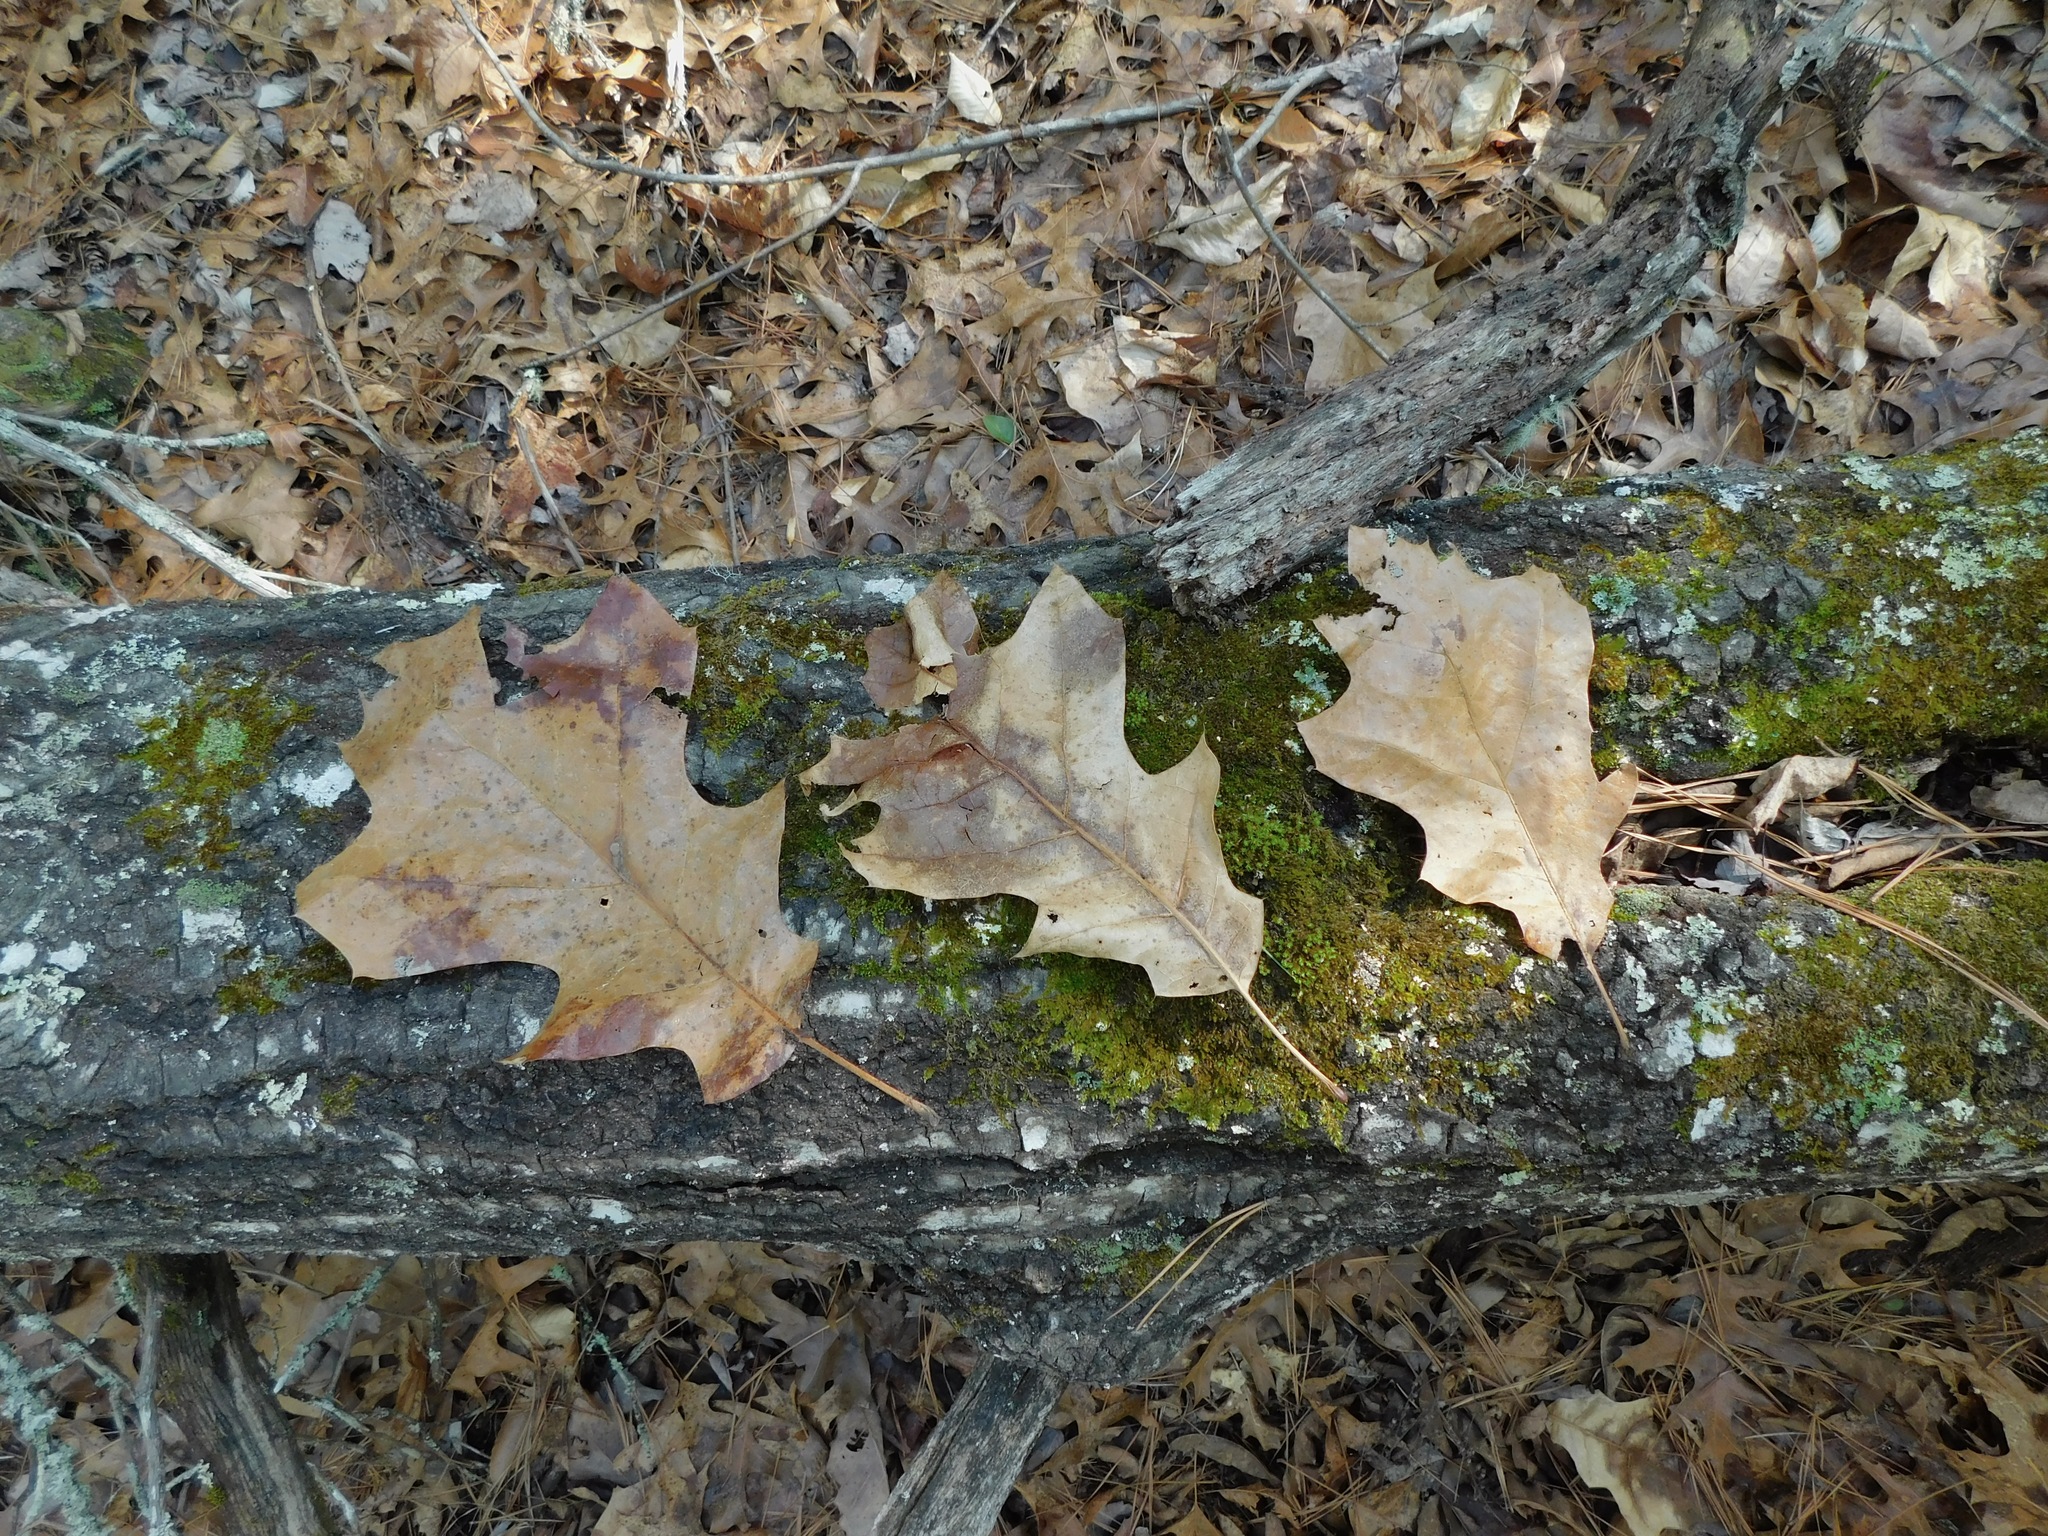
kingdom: Plantae
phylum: Tracheophyta
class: Magnoliopsida
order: Fagales
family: Fagaceae
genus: Quercus
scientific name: Quercus velutina
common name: Black oak
